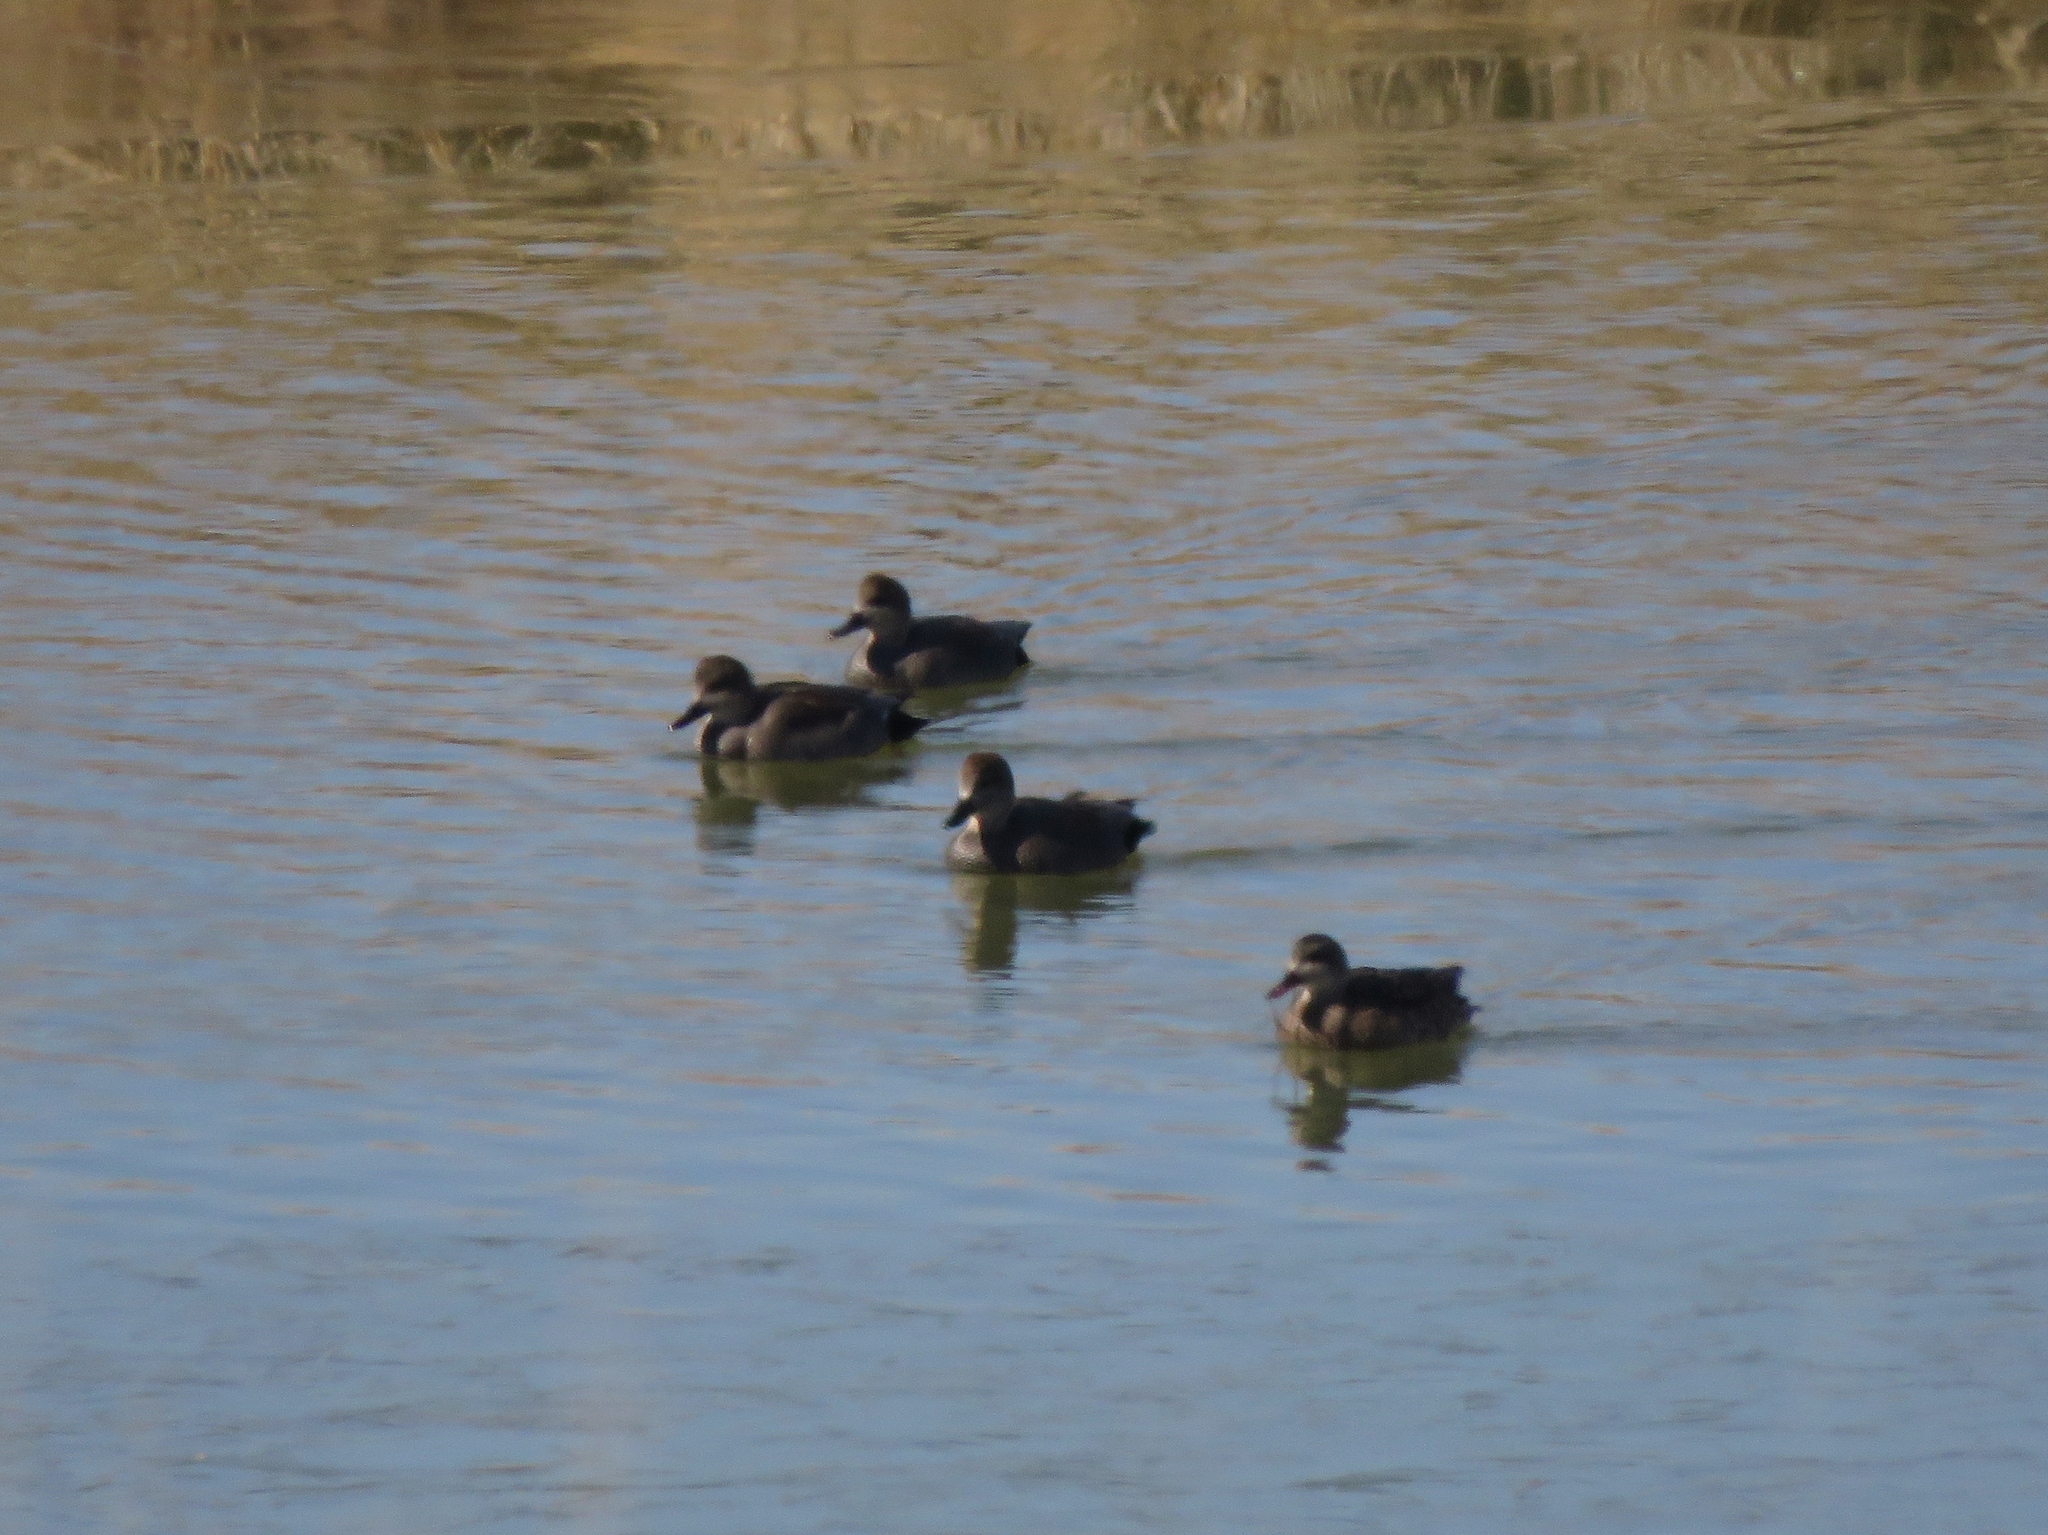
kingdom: Animalia
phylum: Chordata
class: Aves
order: Anseriformes
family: Anatidae
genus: Mareca
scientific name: Mareca strepera
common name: Gadwall
